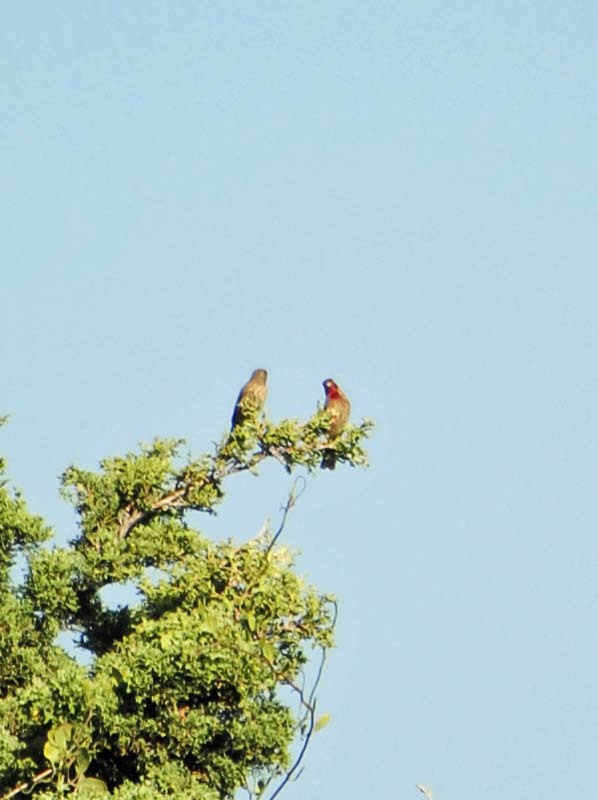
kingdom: Animalia
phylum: Chordata
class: Aves
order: Passeriformes
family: Fringillidae
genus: Haemorhous
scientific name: Haemorhous mexicanus
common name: House finch
